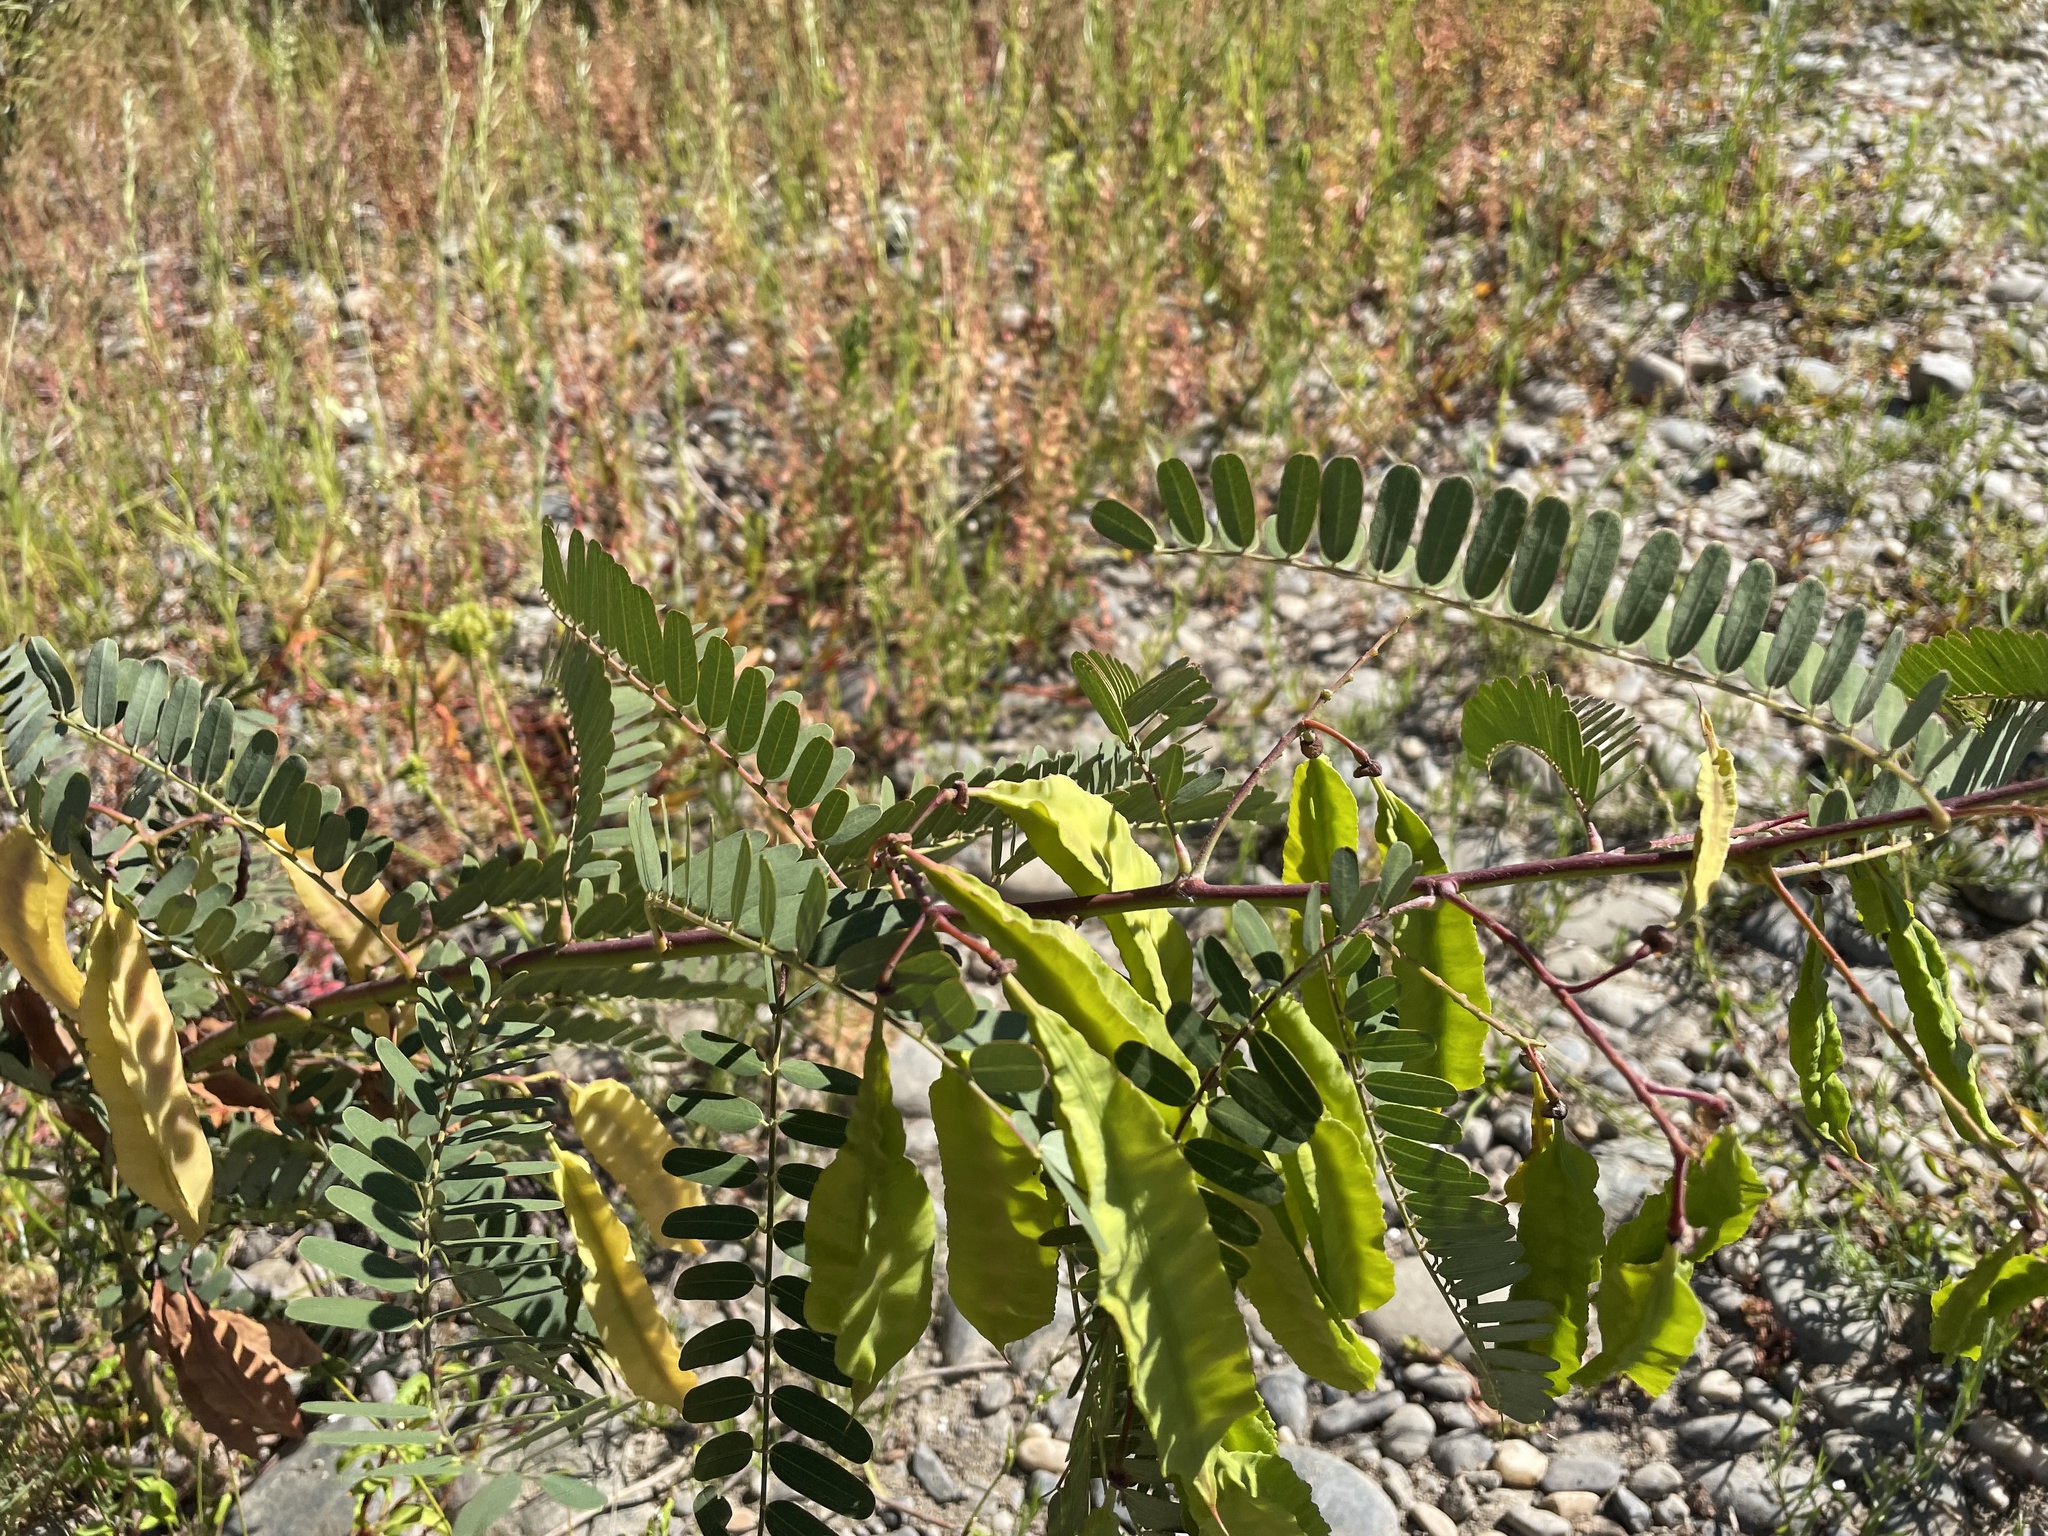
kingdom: Plantae
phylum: Tracheophyta
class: Magnoliopsida
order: Fabales
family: Fabaceae
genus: Sesbania
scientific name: Sesbania punicea
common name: Rattlebox
